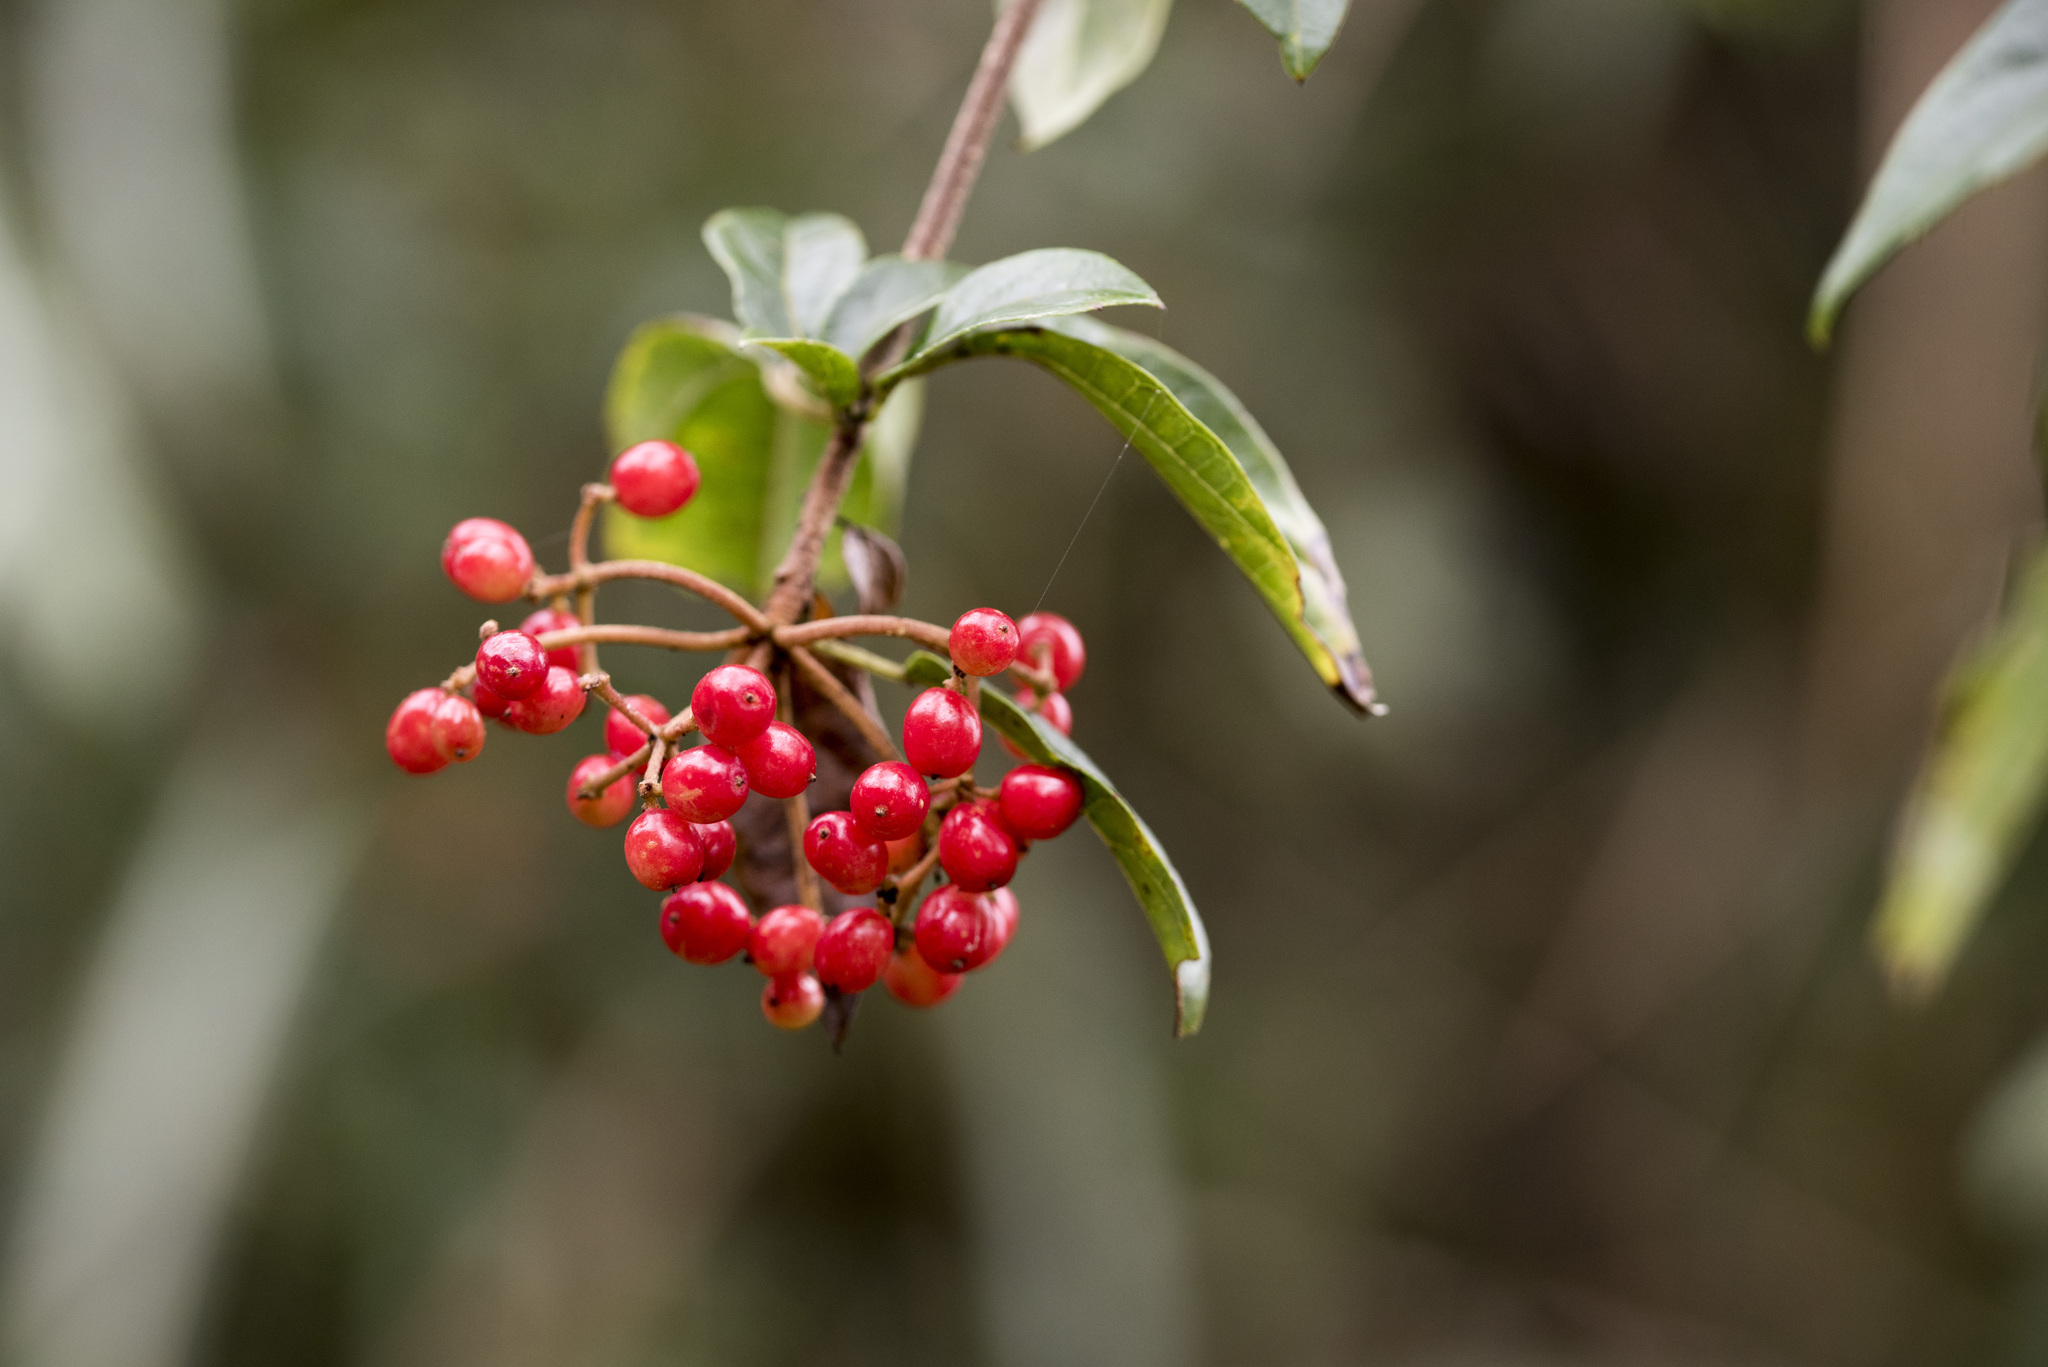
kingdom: Plantae
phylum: Tracheophyta
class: Magnoliopsida
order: Dipsacales
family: Viburnaceae
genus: Viburnum
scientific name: Viburnum foetidum
